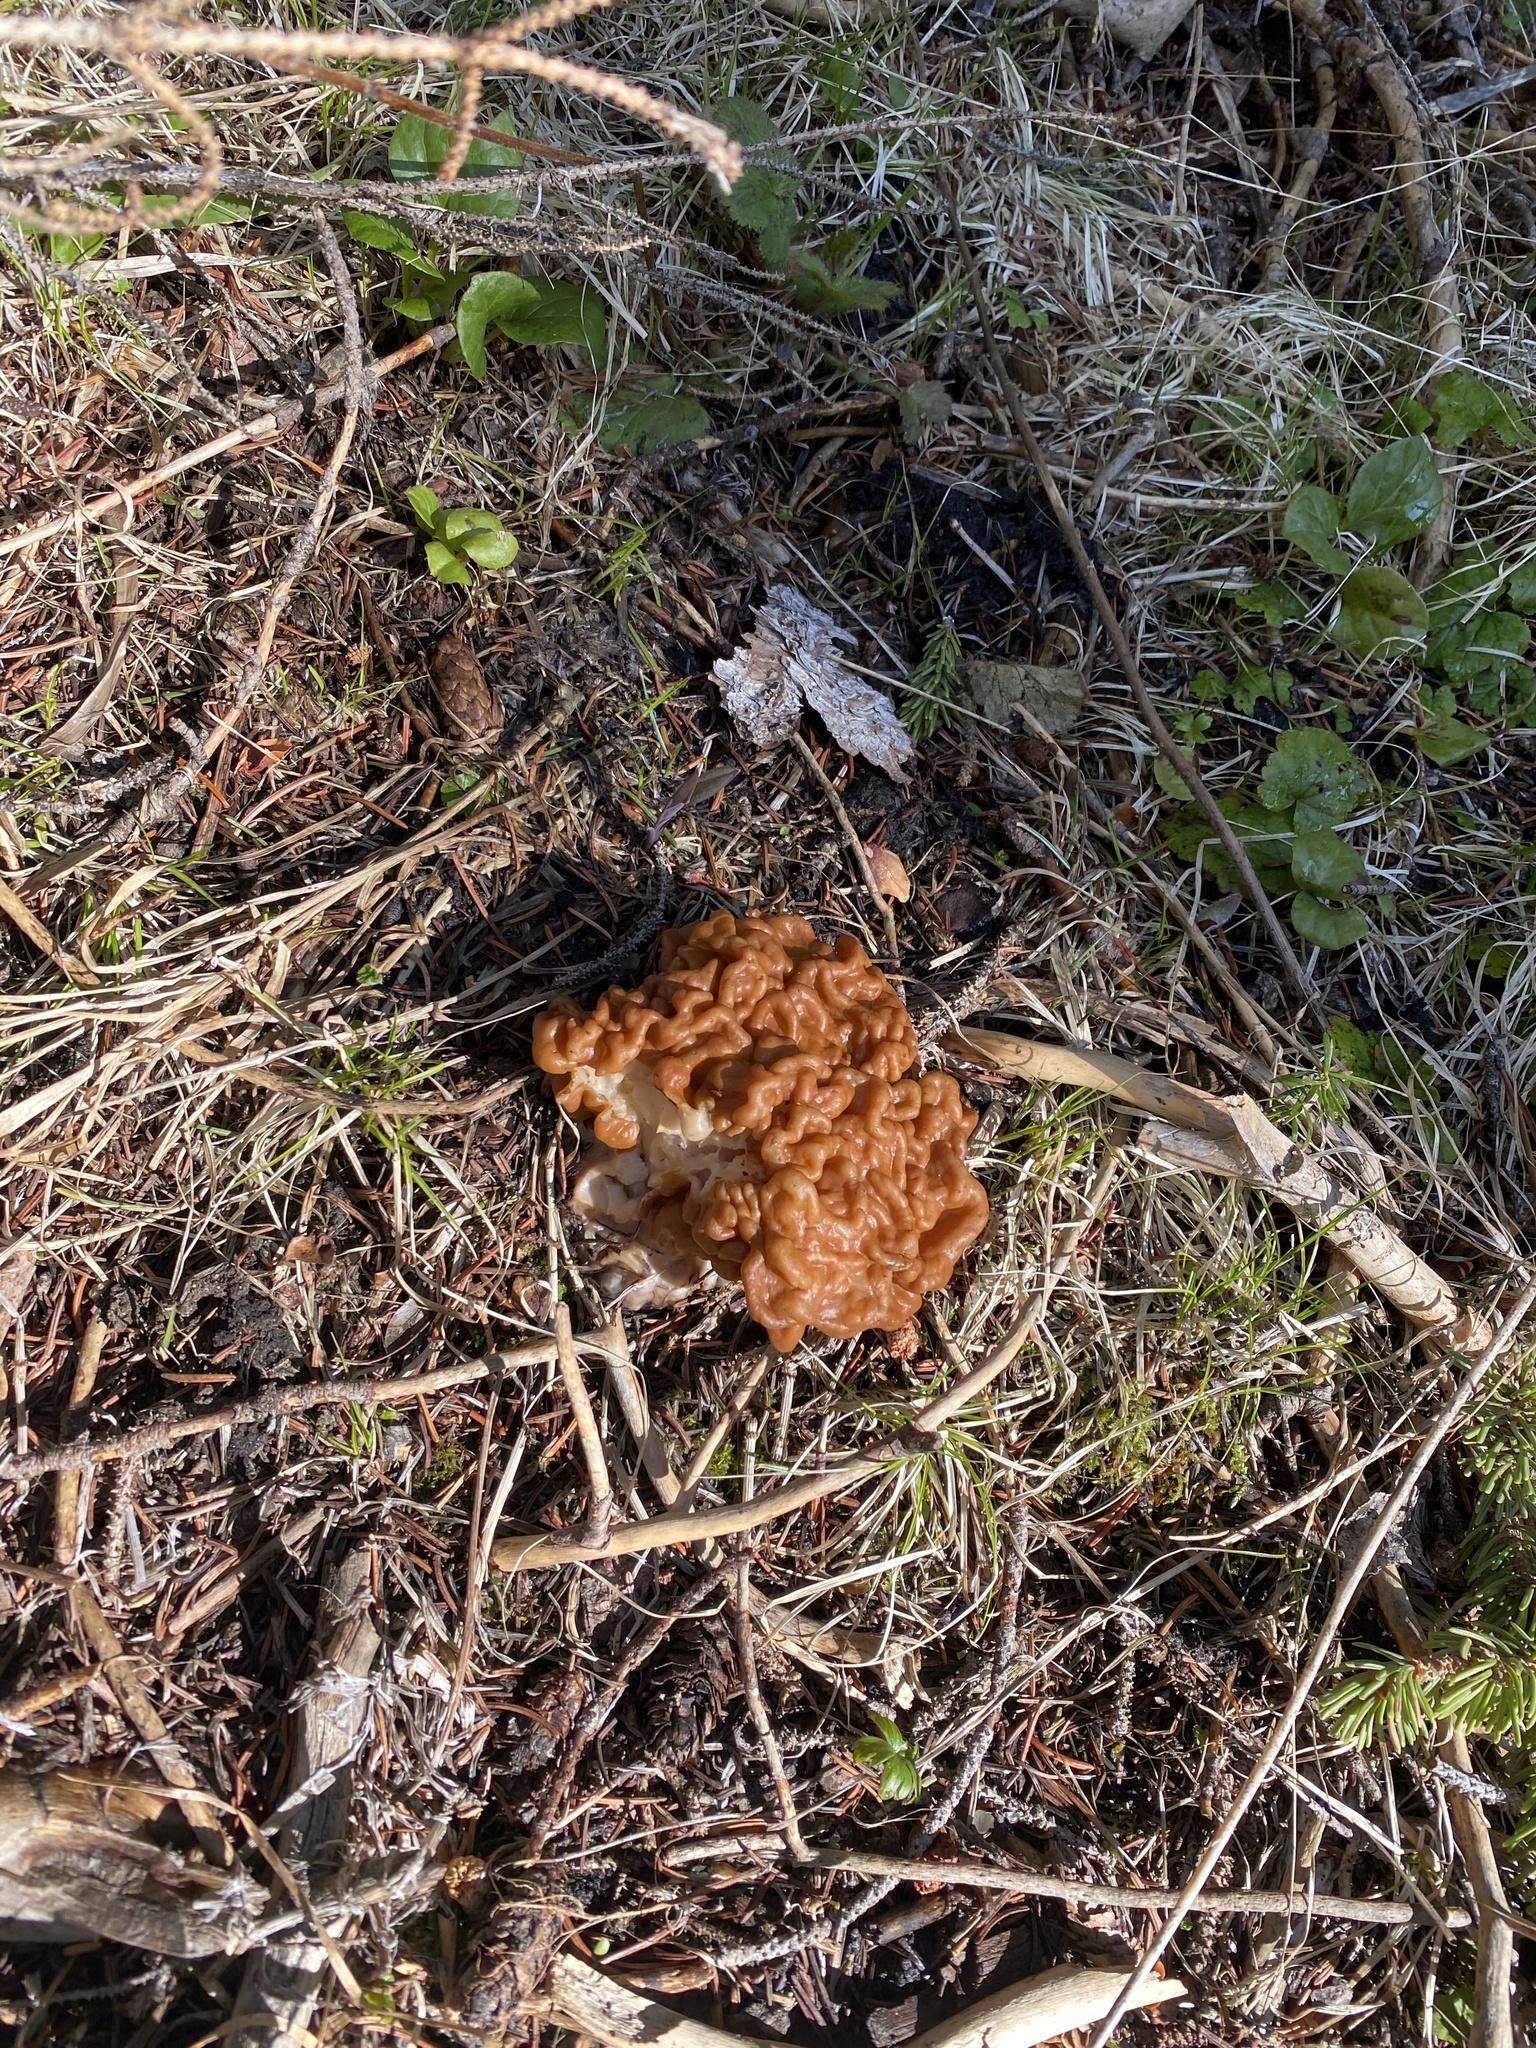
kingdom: Fungi
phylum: Ascomycota
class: Pezizomycetes
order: Pezizales
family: Discinaceae
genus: Discina
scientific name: Discina montana
